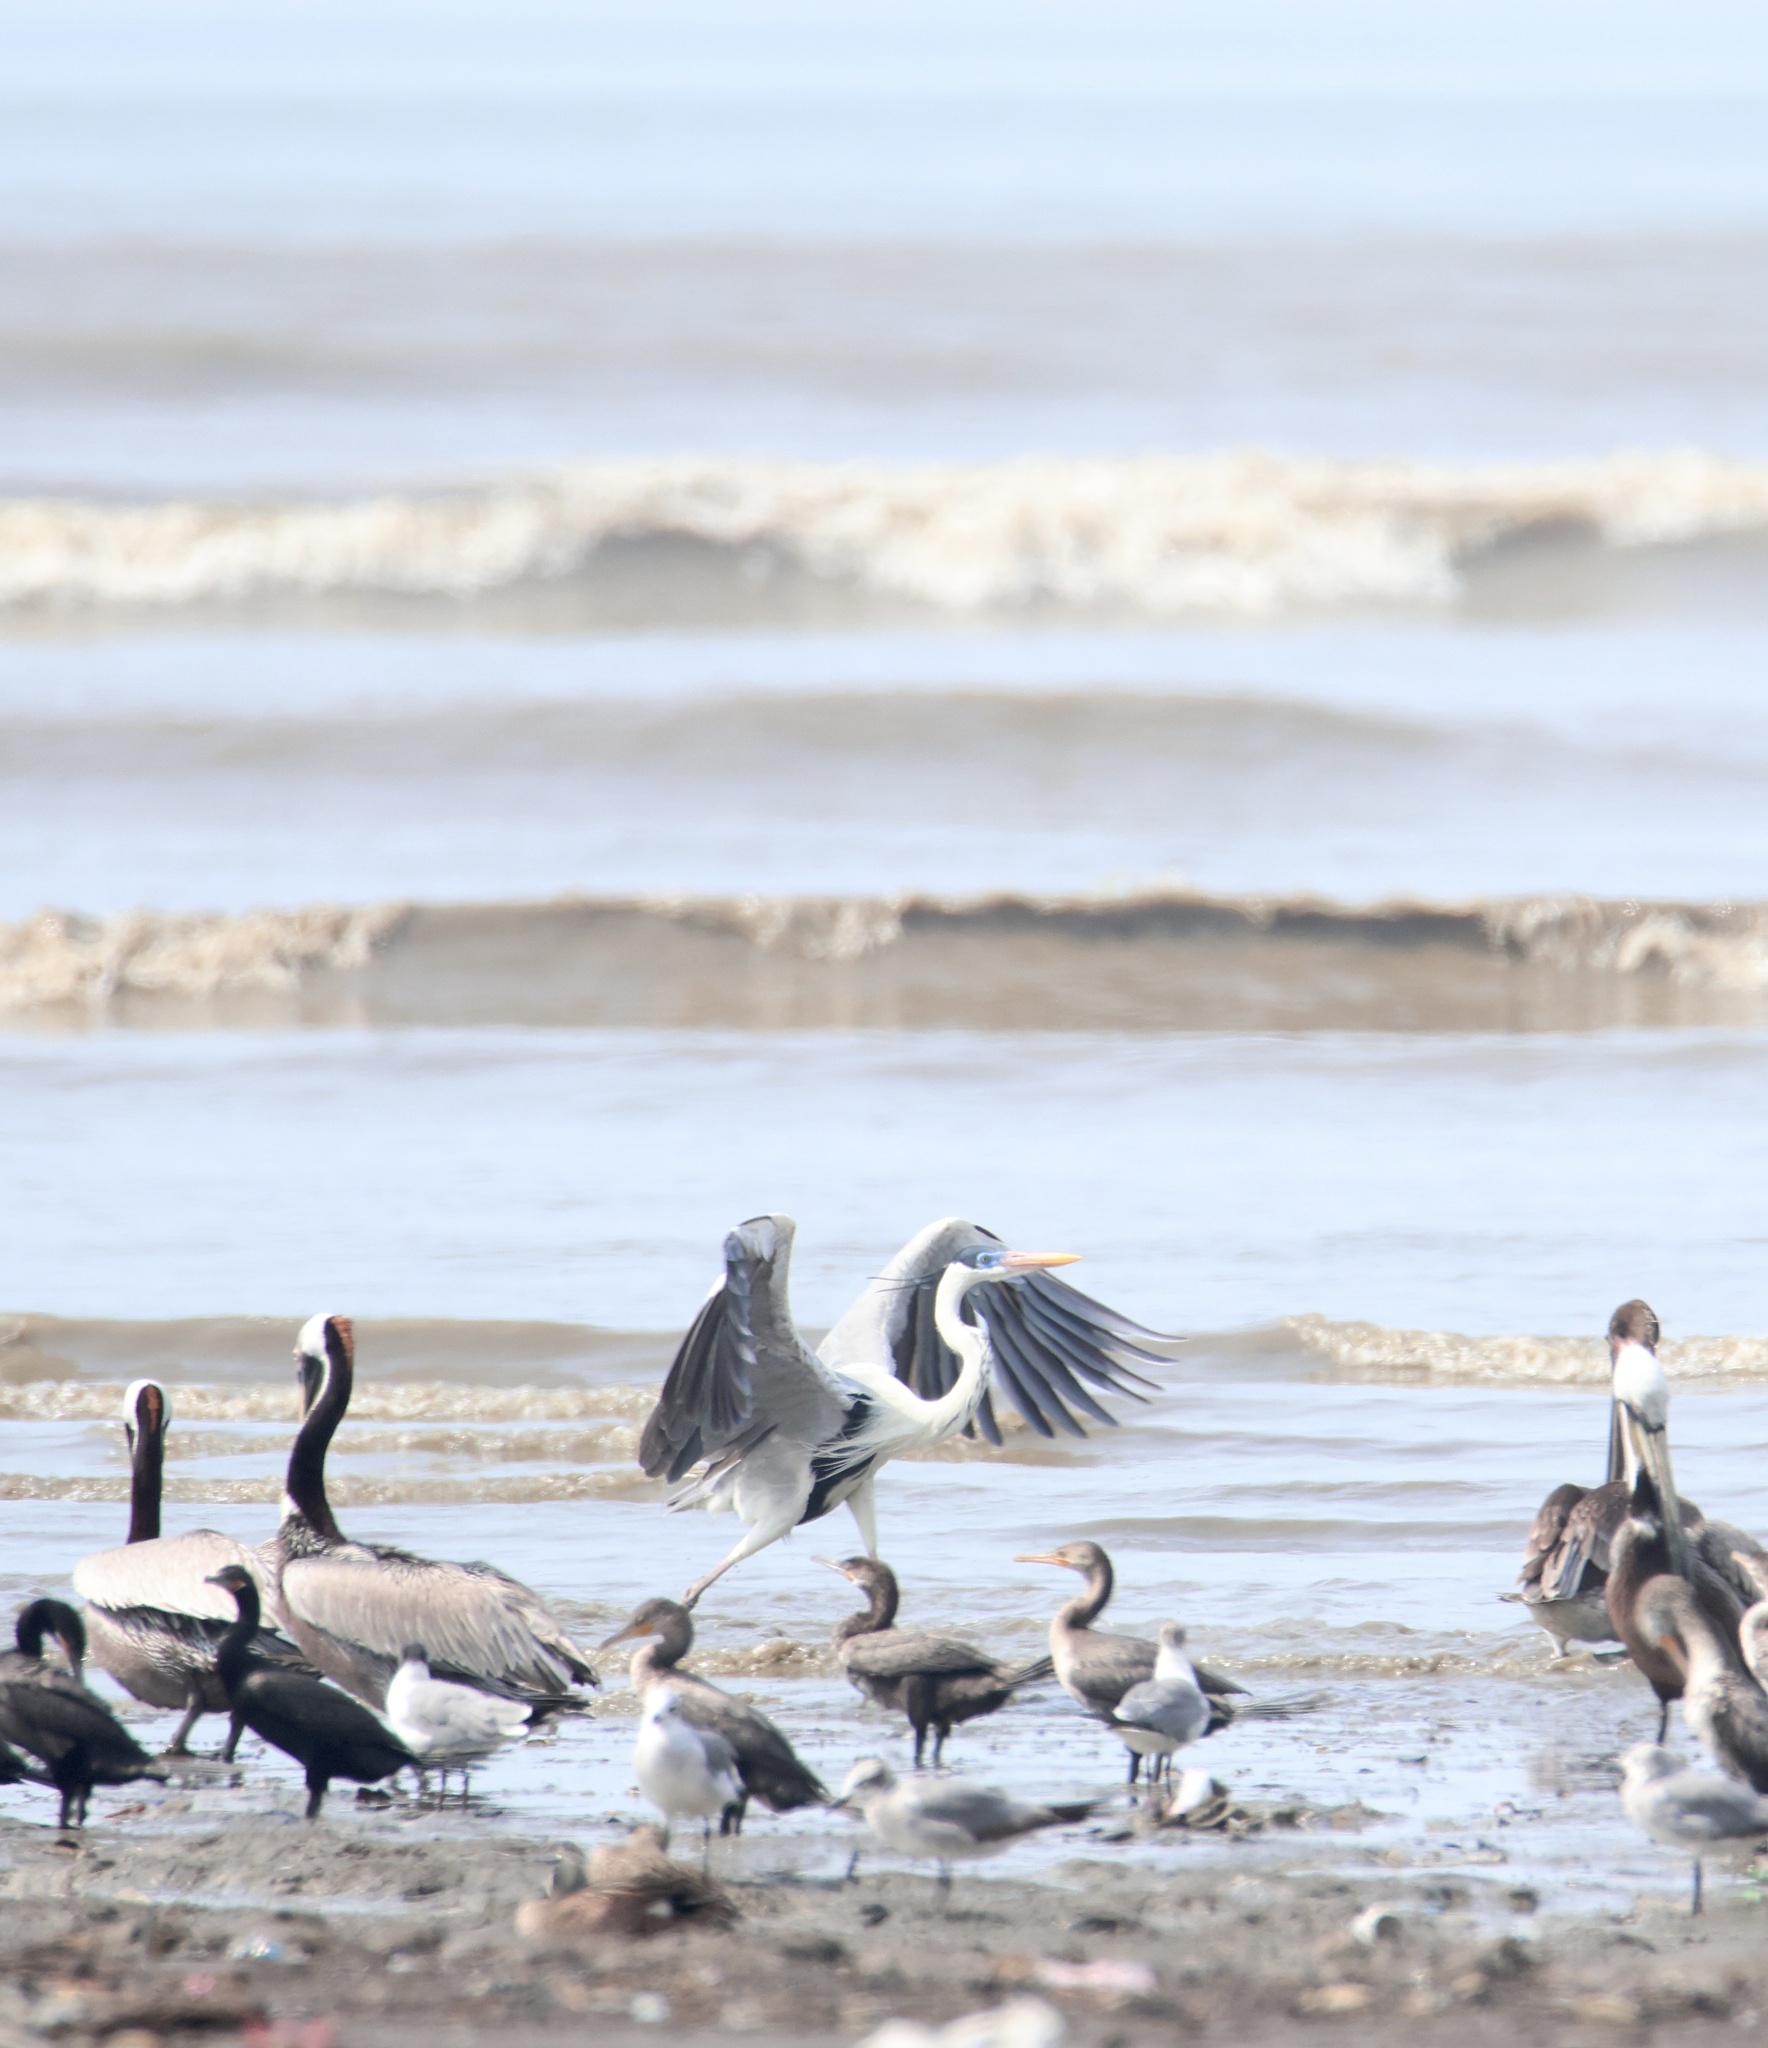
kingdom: Animalia
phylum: Chordata
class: Aves
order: Pelecaniformes
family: Ardeidae
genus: Ardea
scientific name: Ardea cocoi
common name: Cocoi heron
